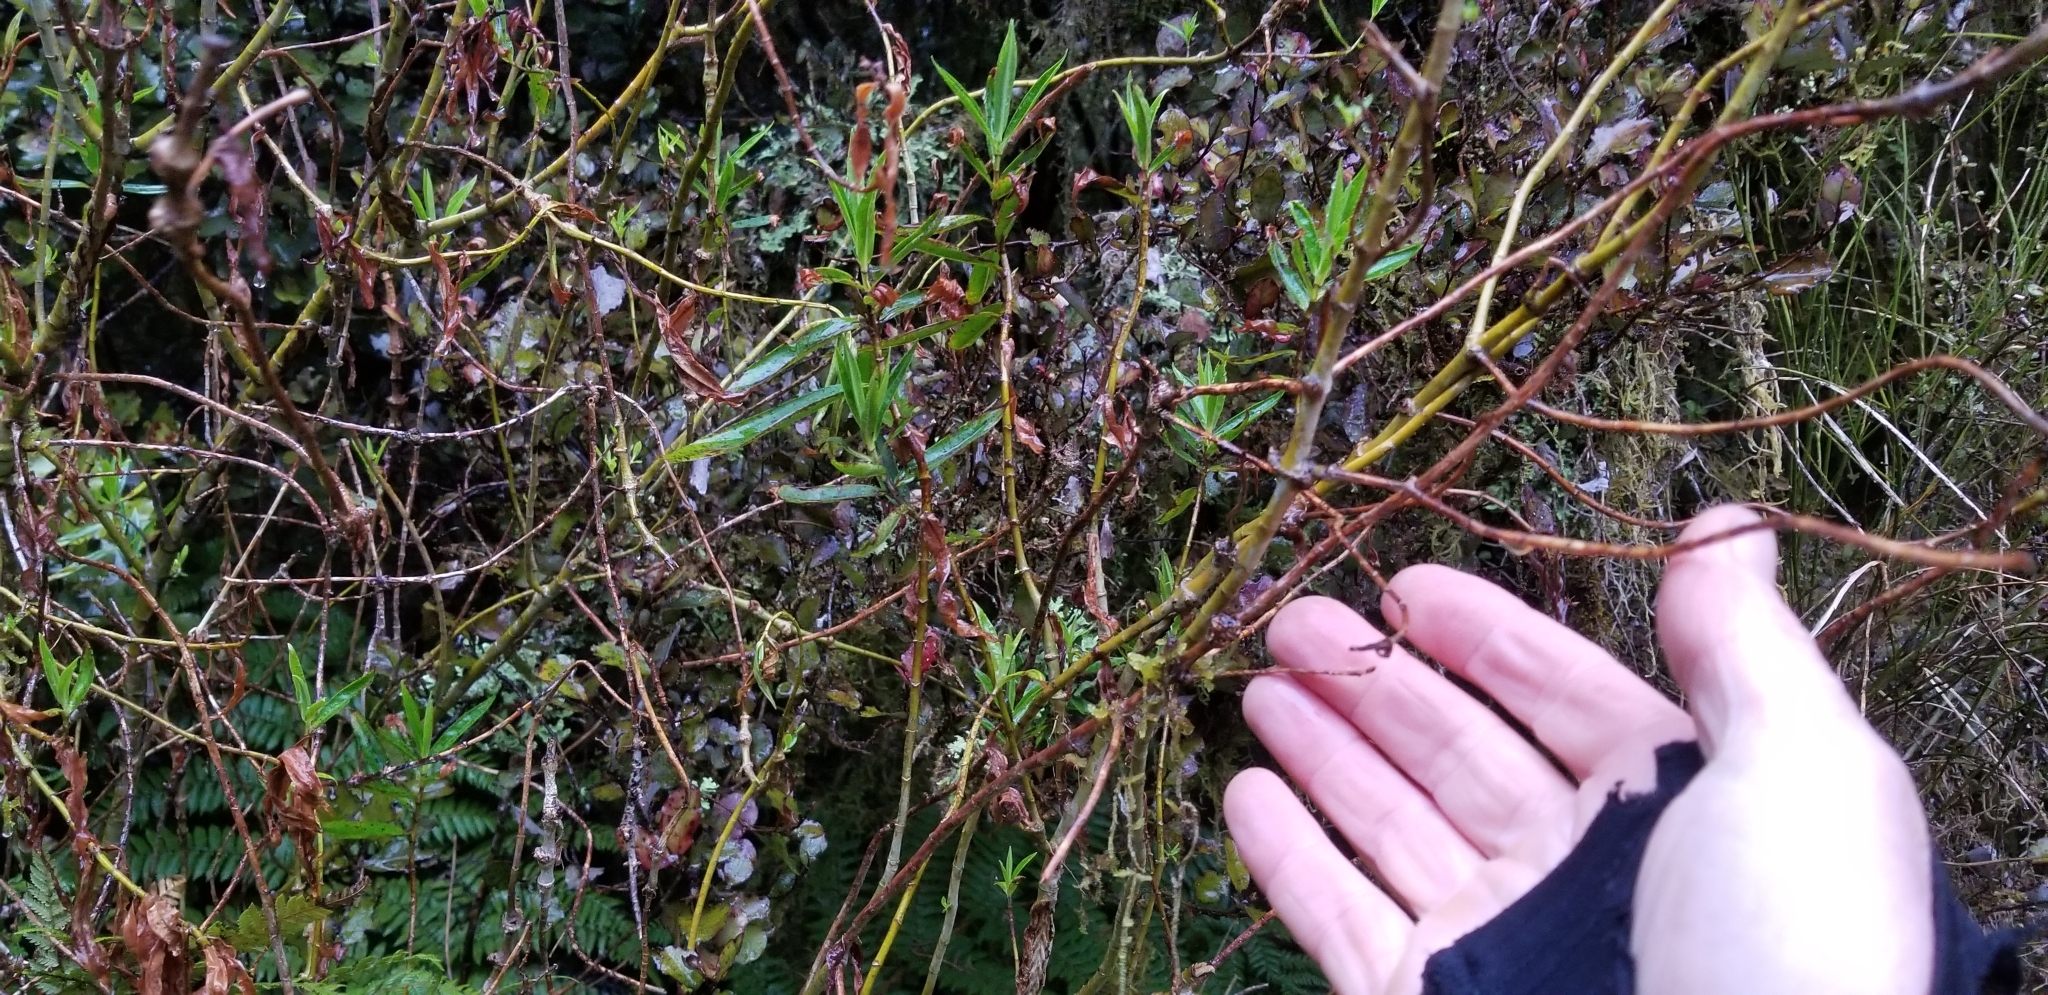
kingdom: Plantae
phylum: Tracheophyta
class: Magnoliopsida
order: Lamiales
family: Plantaginaceae
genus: Veronica
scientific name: Veronica salicifolia
